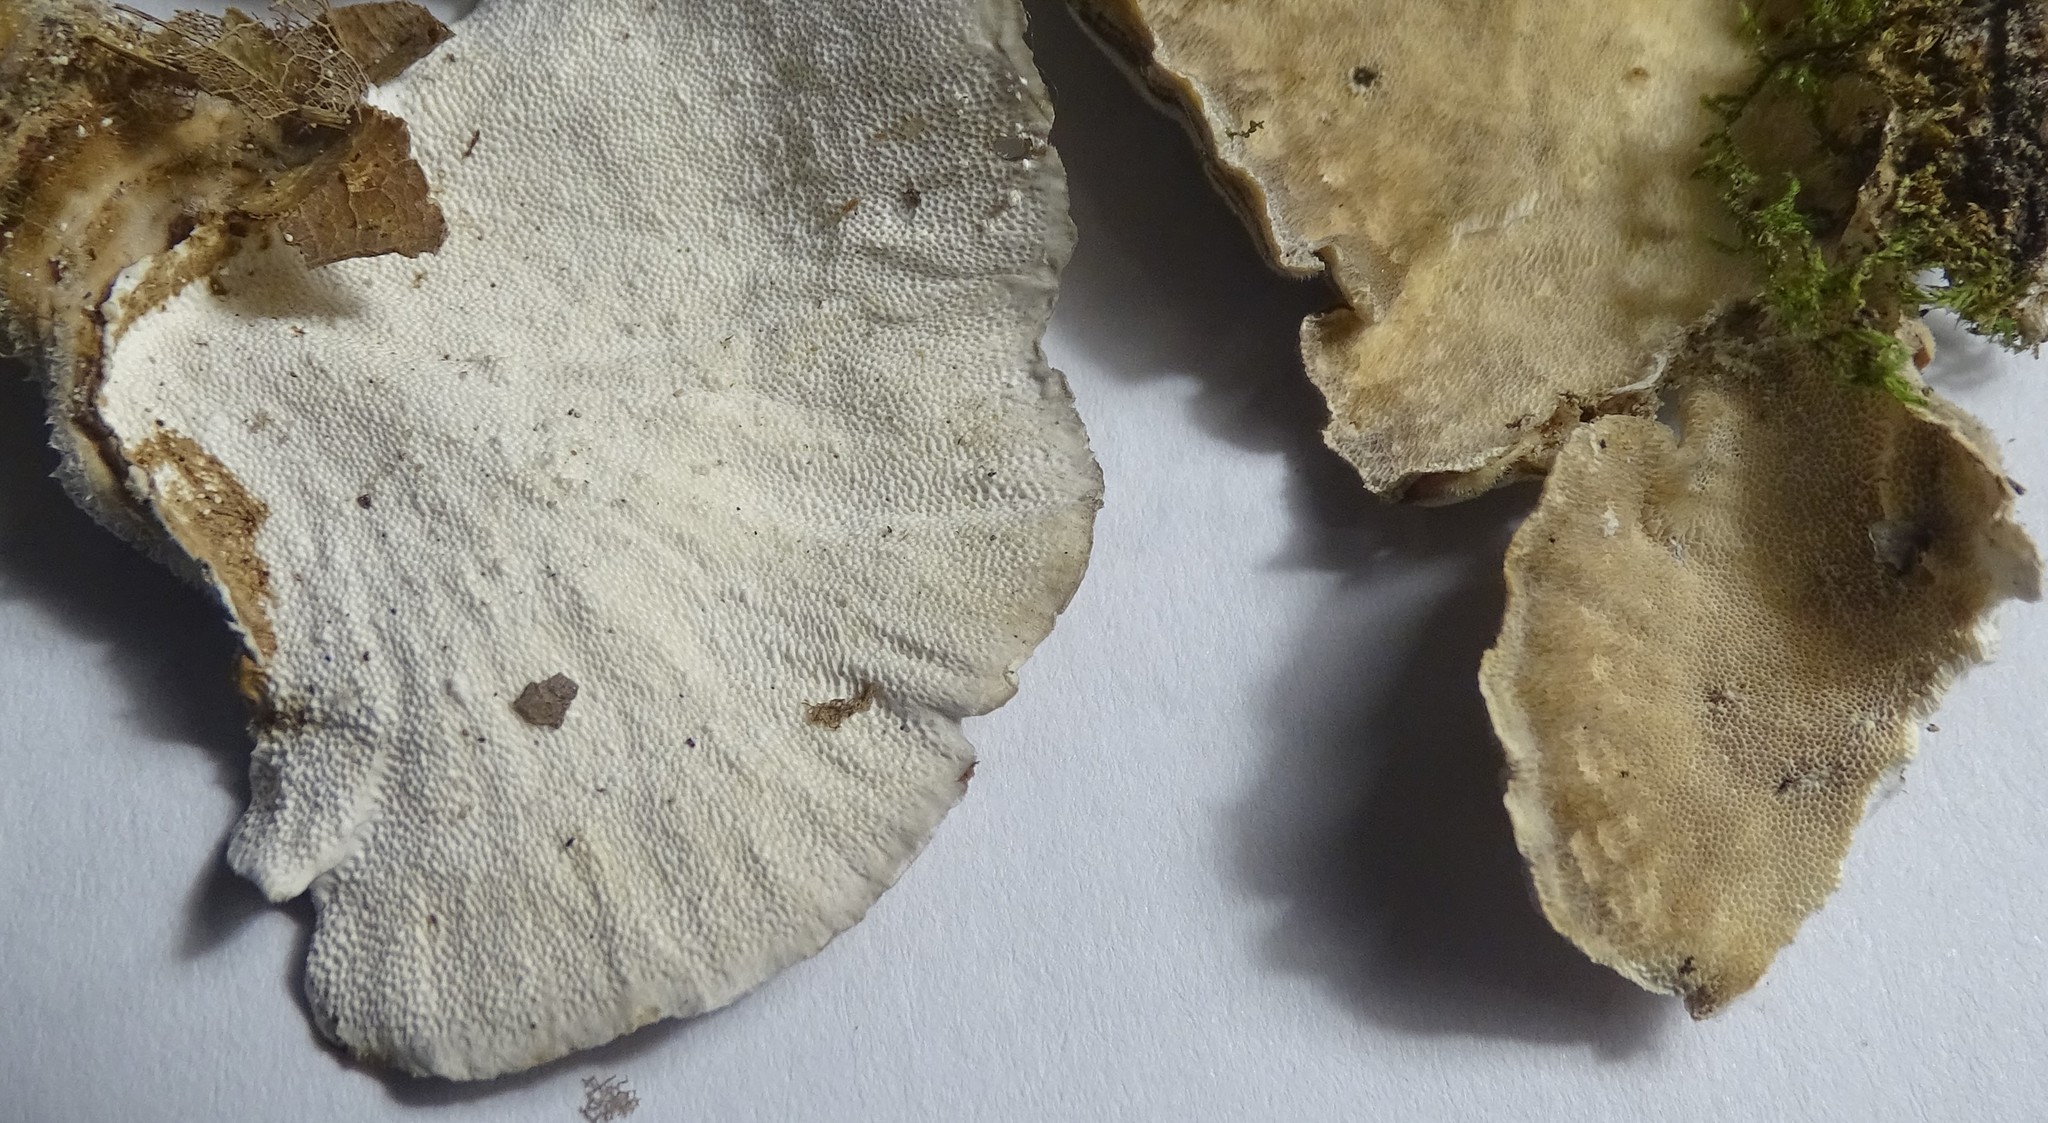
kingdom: Fungi
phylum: Basidiomycota
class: Agaricomycetes
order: Polyporales
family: Polyporaceae
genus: Trametes
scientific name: Trametes versicolor
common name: Turkeytail
